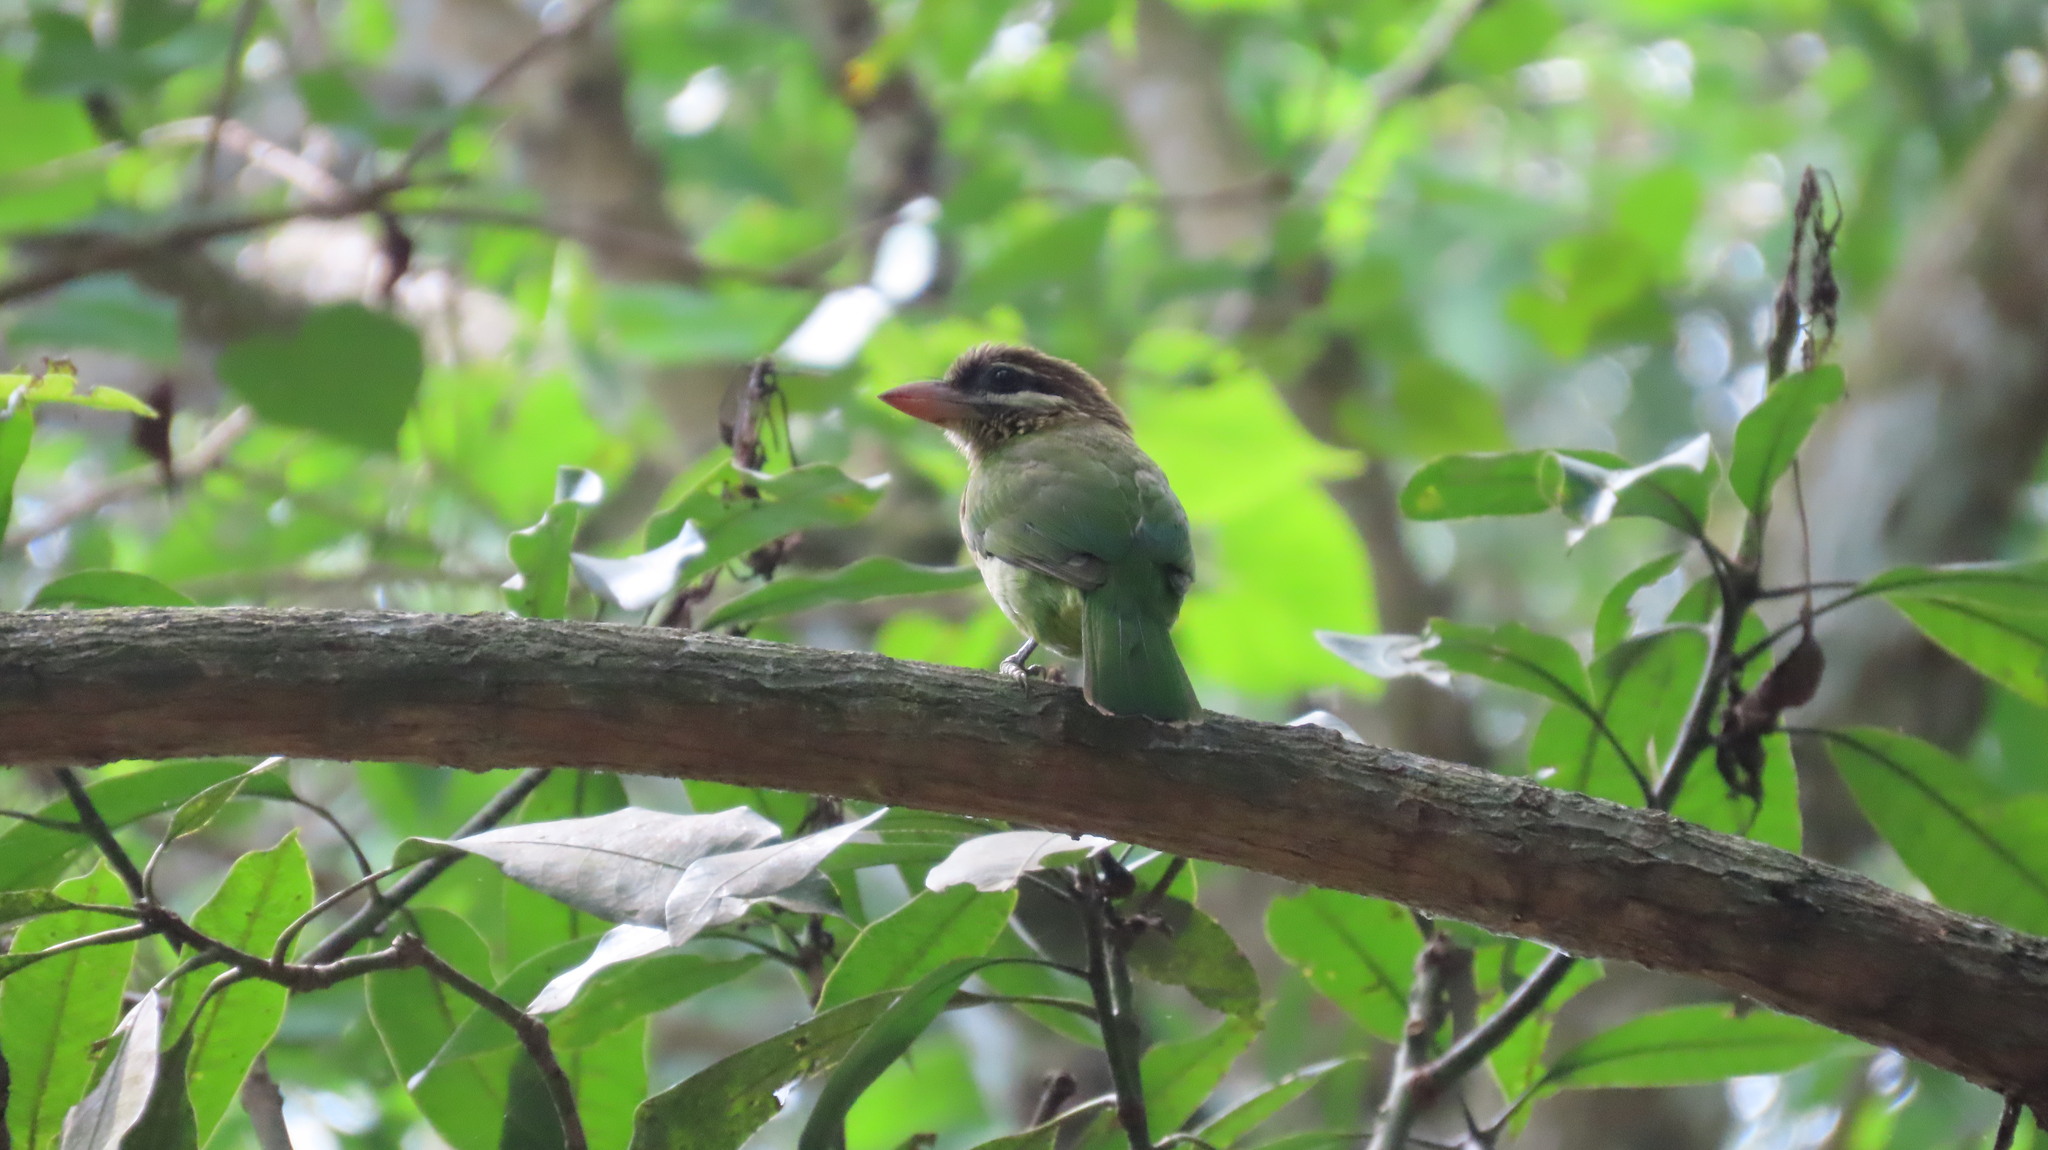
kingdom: Animalia
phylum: Chordata
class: Aves
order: Piciformes
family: Megalaimidae
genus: Psilopogon
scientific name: Psilopogon viridis
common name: White-cheeked barbet
